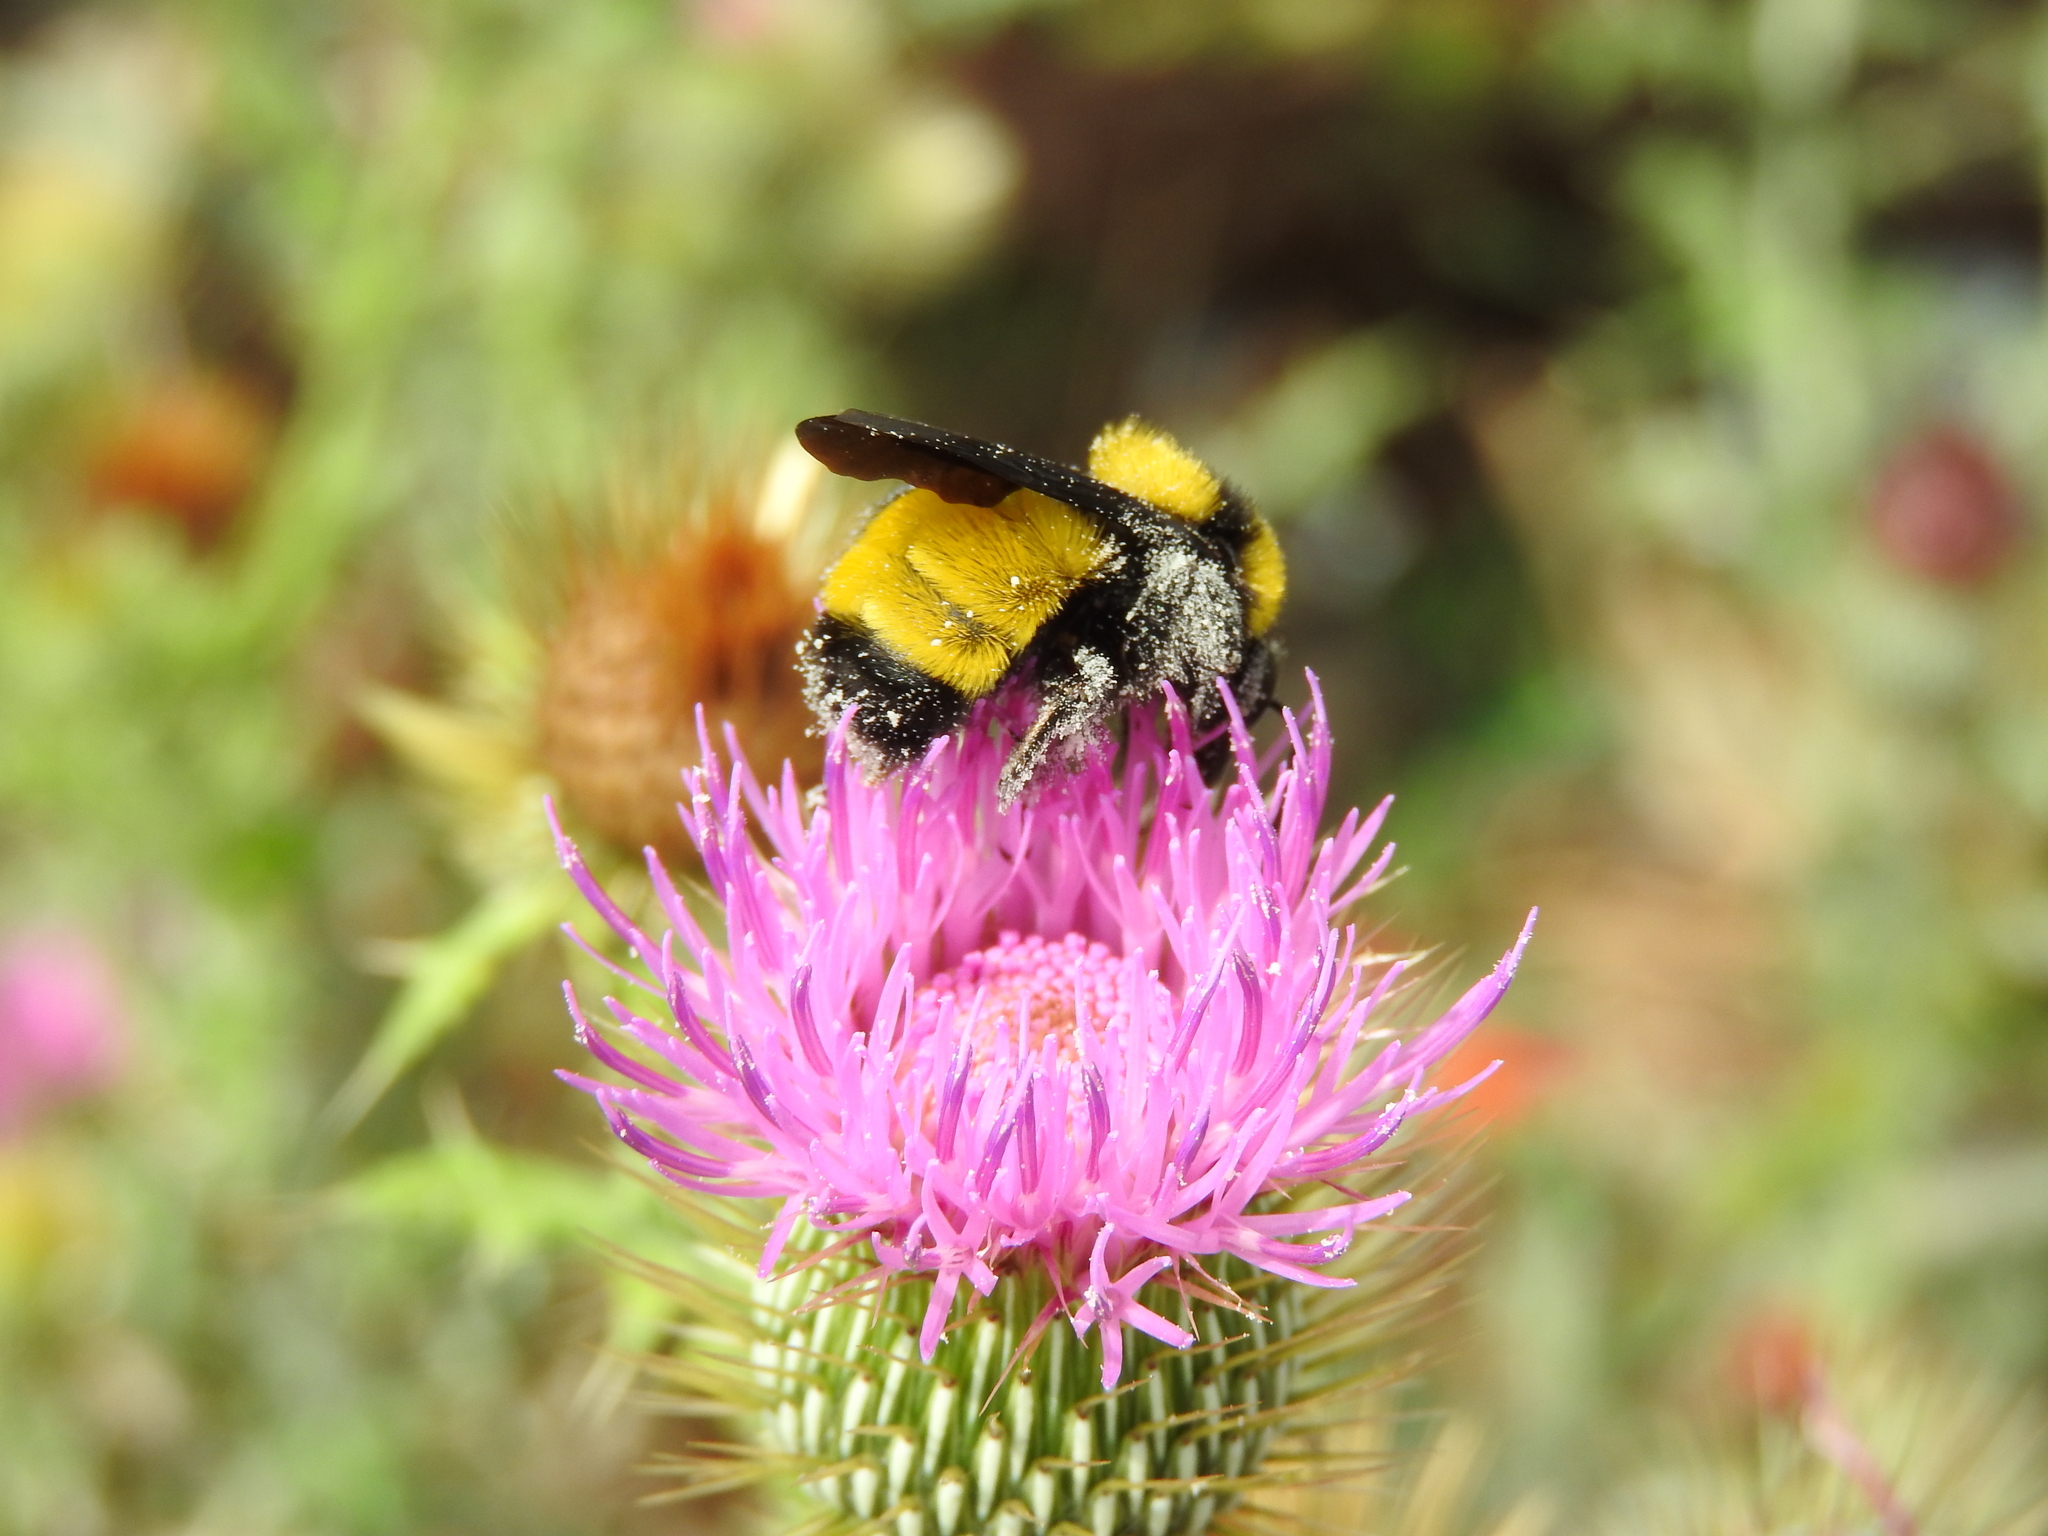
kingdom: Animalia
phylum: Arthropoda
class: Insecta
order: Hymenoptera
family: Apidae
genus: Bombus
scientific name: Bombus sonorus
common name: Sonoran bumble bee
